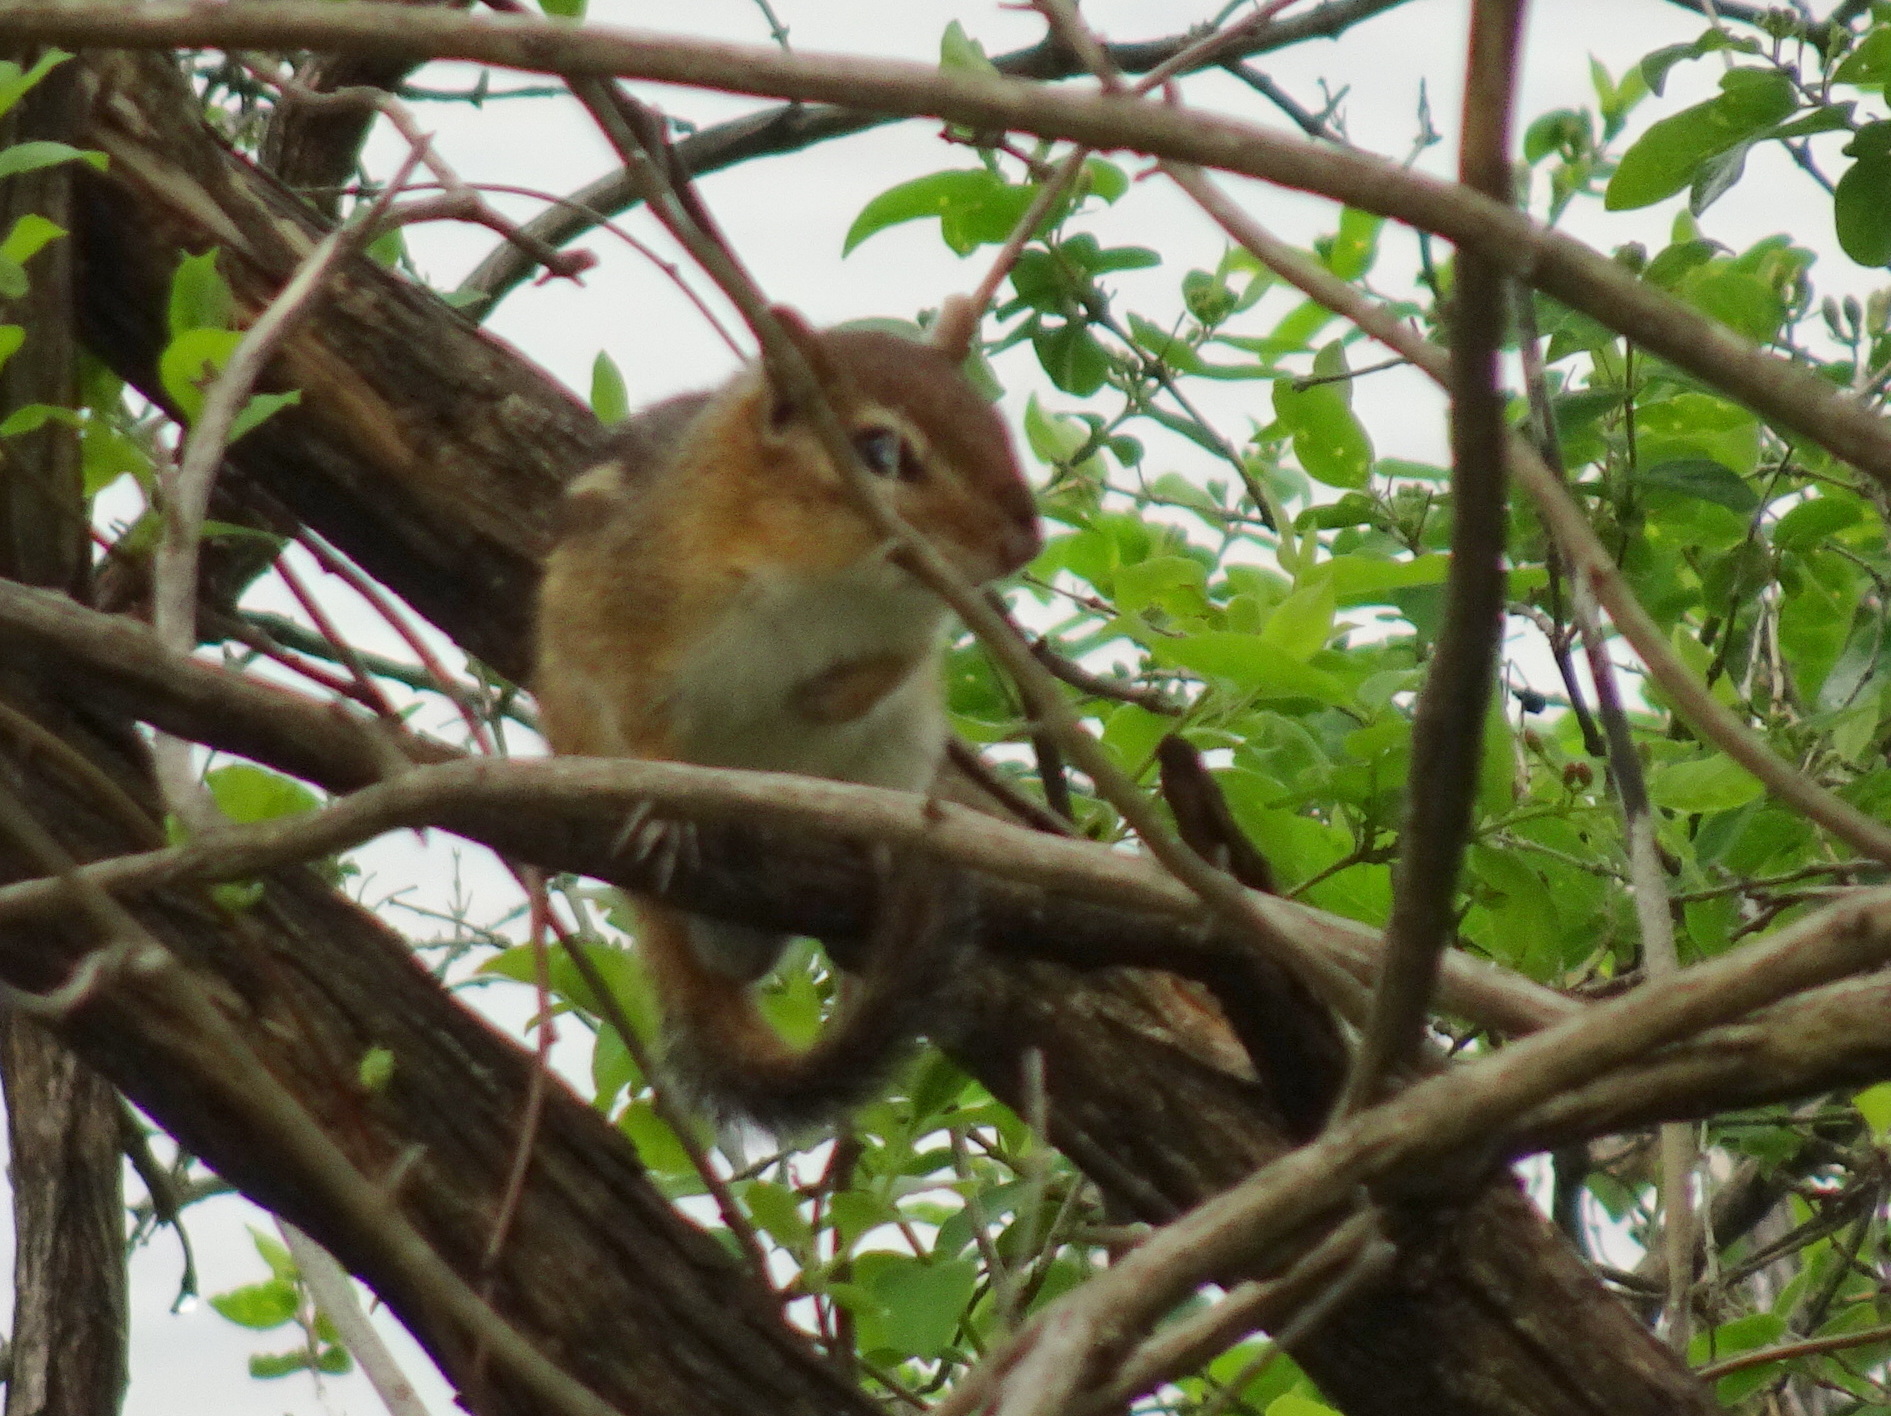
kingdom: Animalia
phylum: Chordata
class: Mammalia
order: Rodentia
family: Sciuridae
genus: Tamias
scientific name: Tamias striatus
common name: Eastern chipmunk
